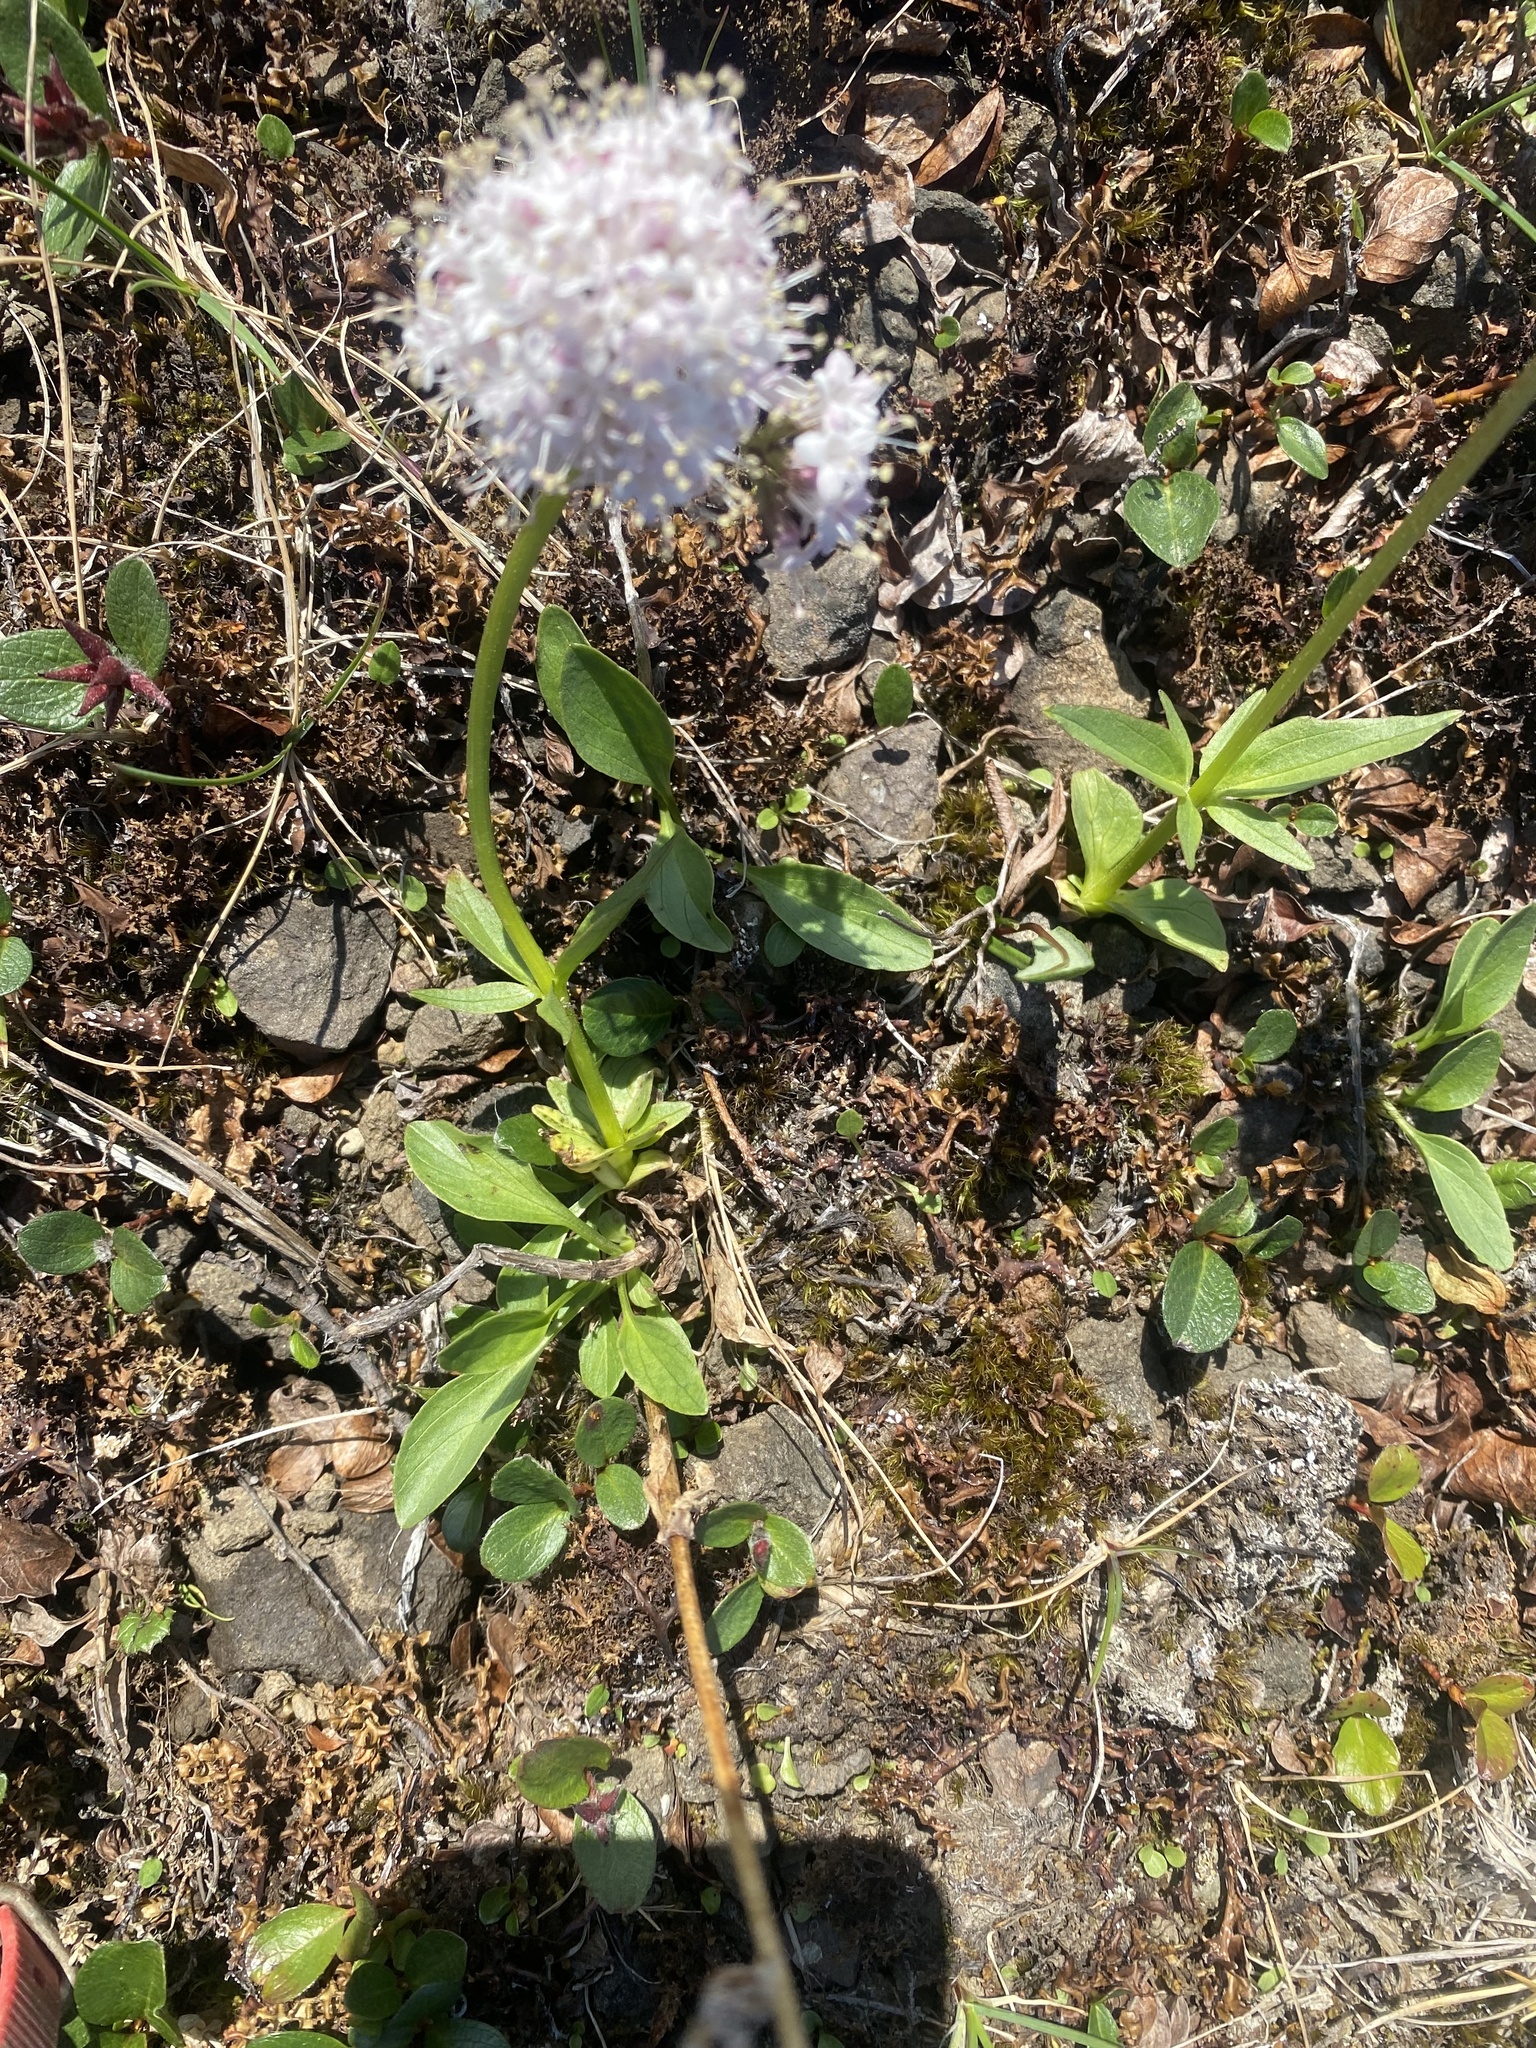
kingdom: Plantae
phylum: Tracheophyta
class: Magnoliopsida
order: Dipsacales
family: Caprifoliaceae
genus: Valeriana
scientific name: Valeriana capitata
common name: Capitate valerian
